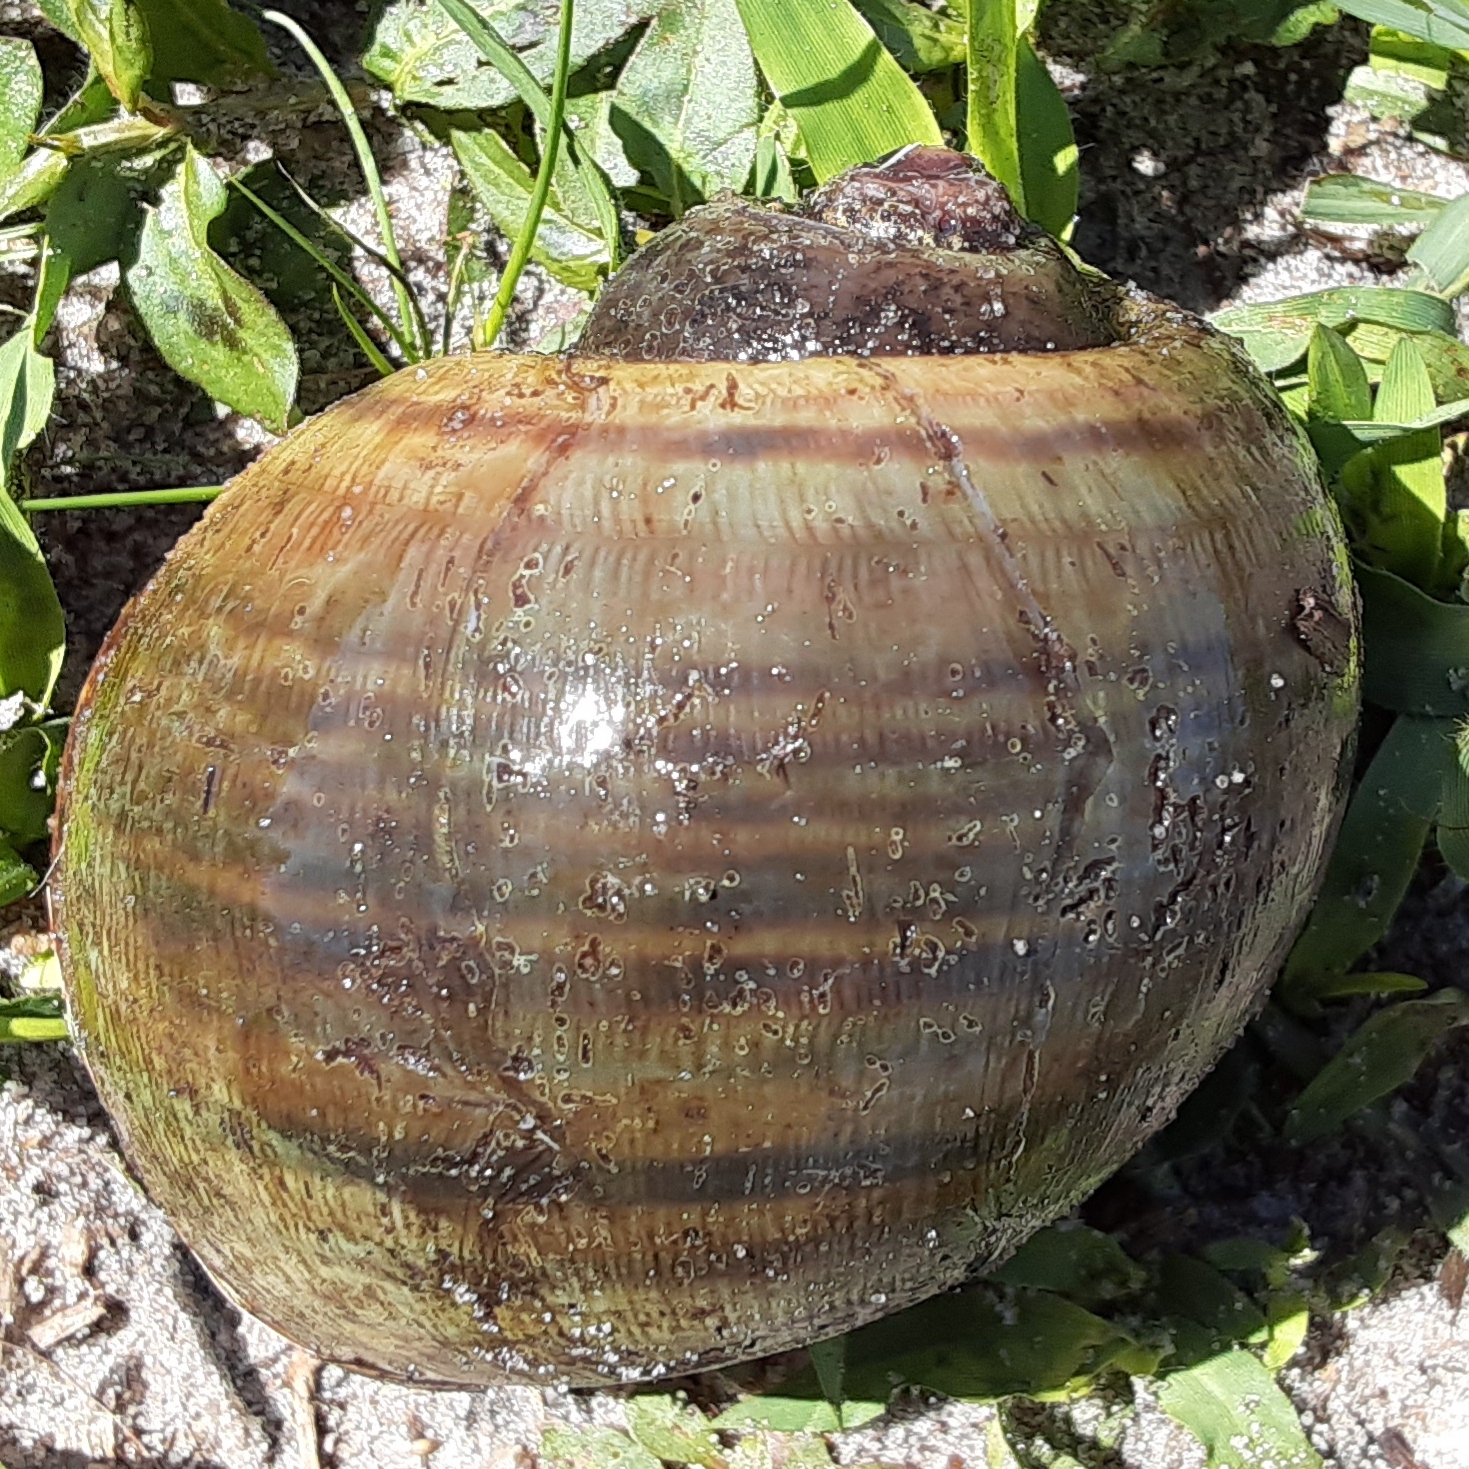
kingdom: Animalia
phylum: Mollusca
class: Gastropoda
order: Architaenioglossa
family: Ampullariidae
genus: Pomacea
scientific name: Pomacea maculata
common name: Giant applesnail
